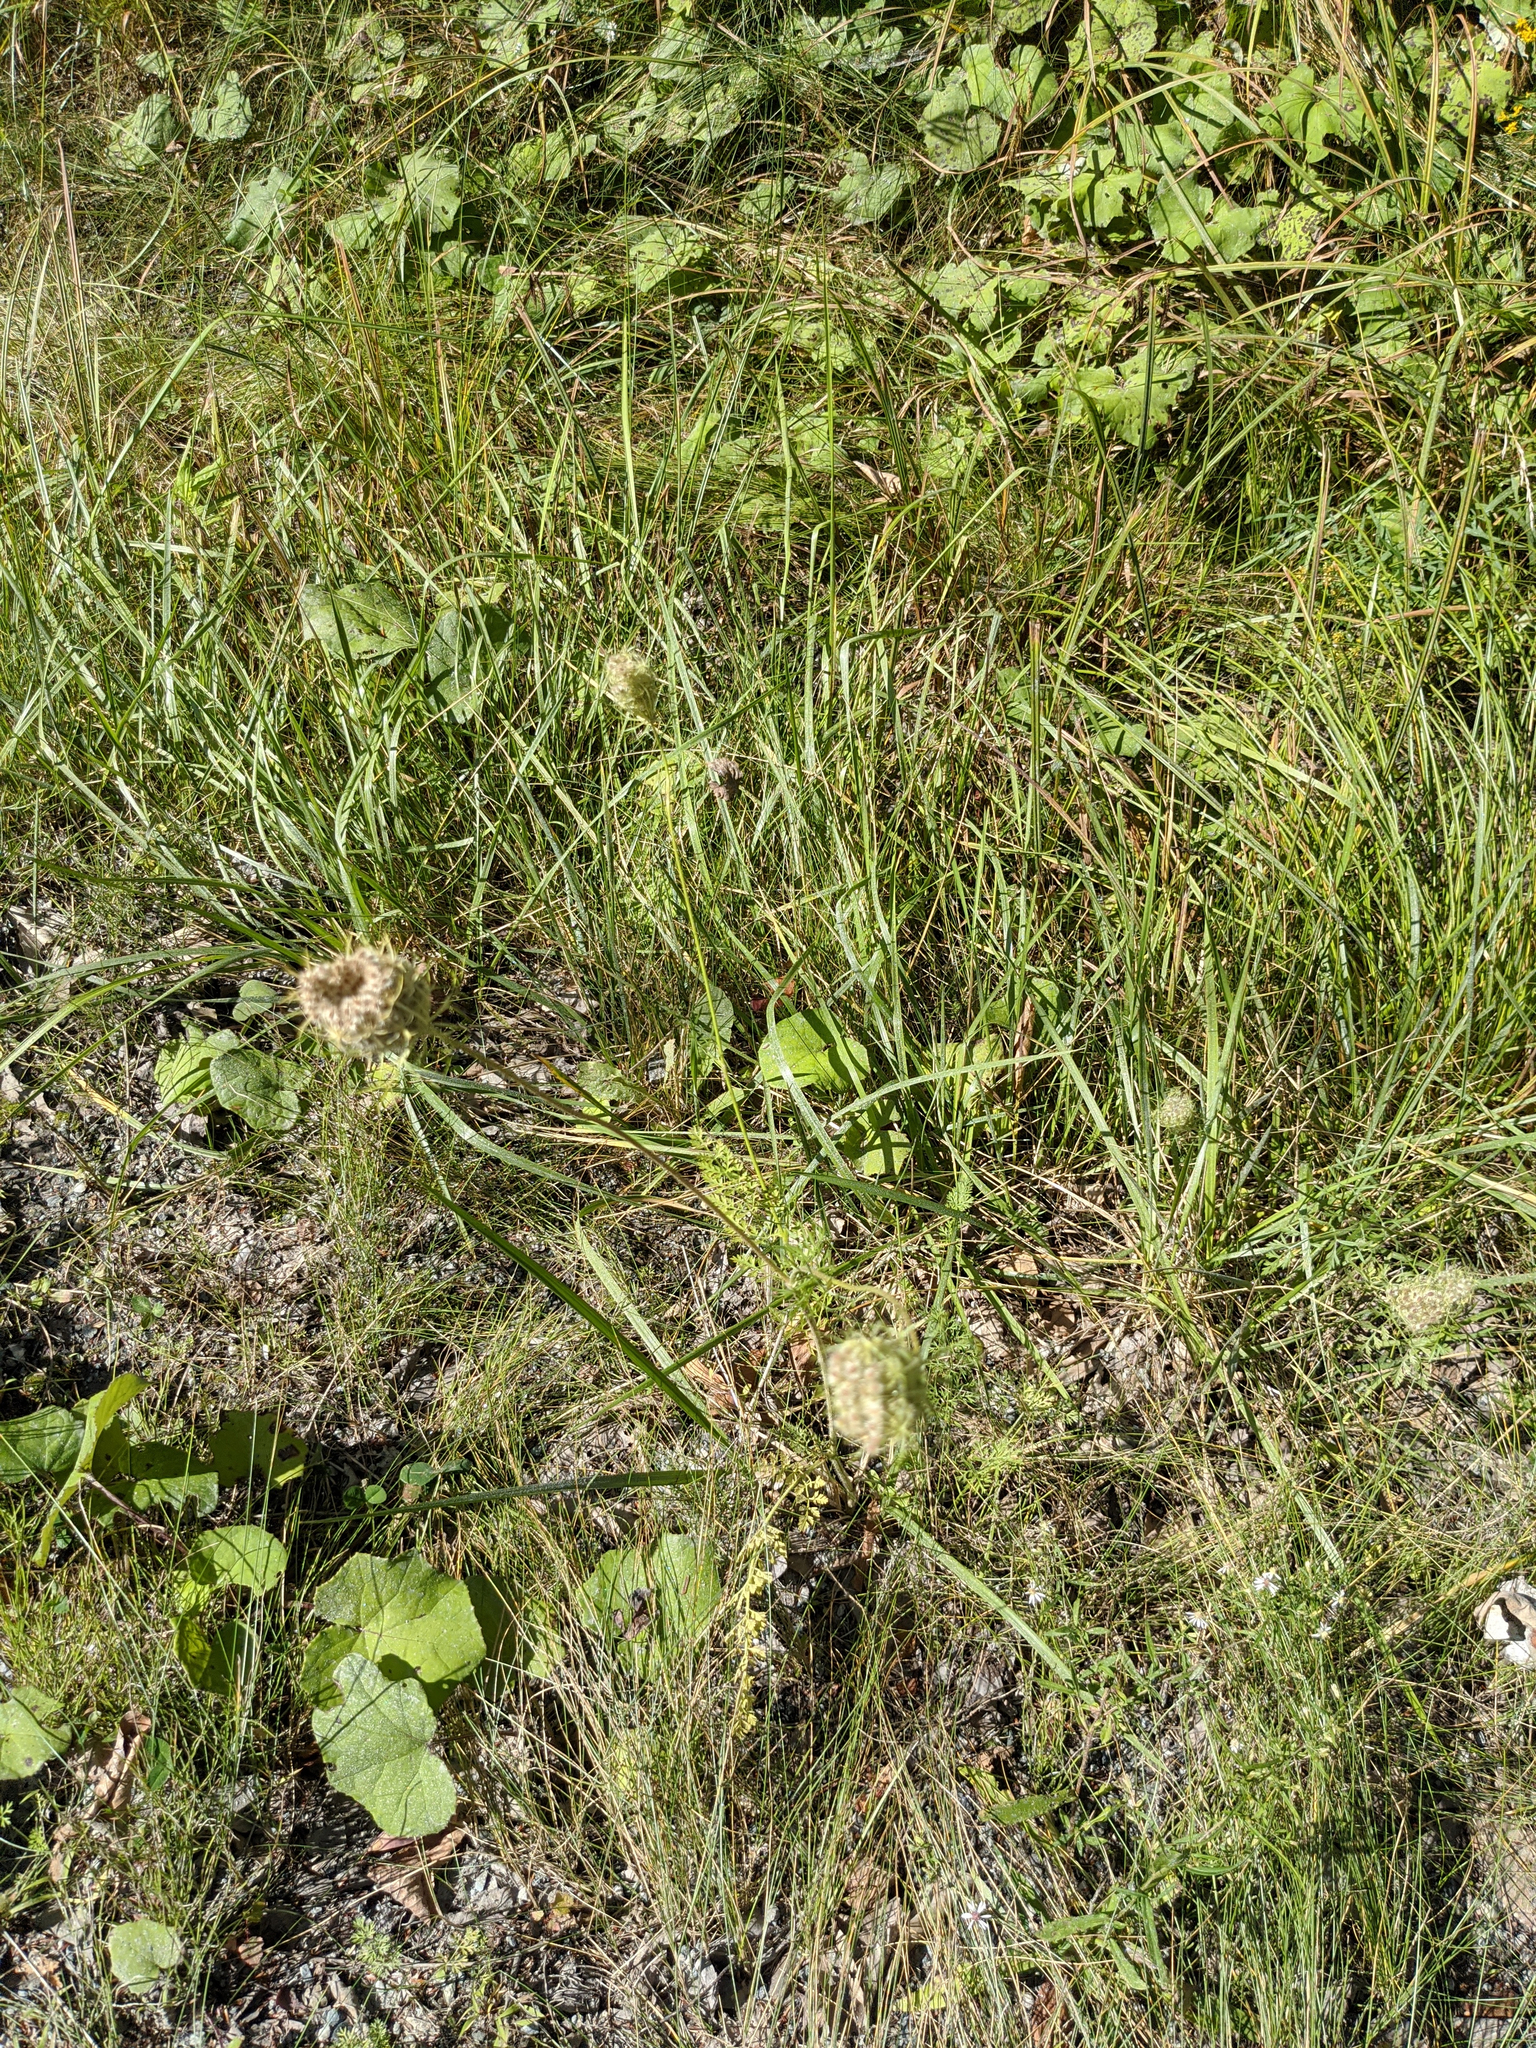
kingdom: Plantae
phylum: Tracheophyta
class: Magnoliopsida
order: Apiales
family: Apiaceae
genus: Daucus
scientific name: Daucus carota
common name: Wild carrot
